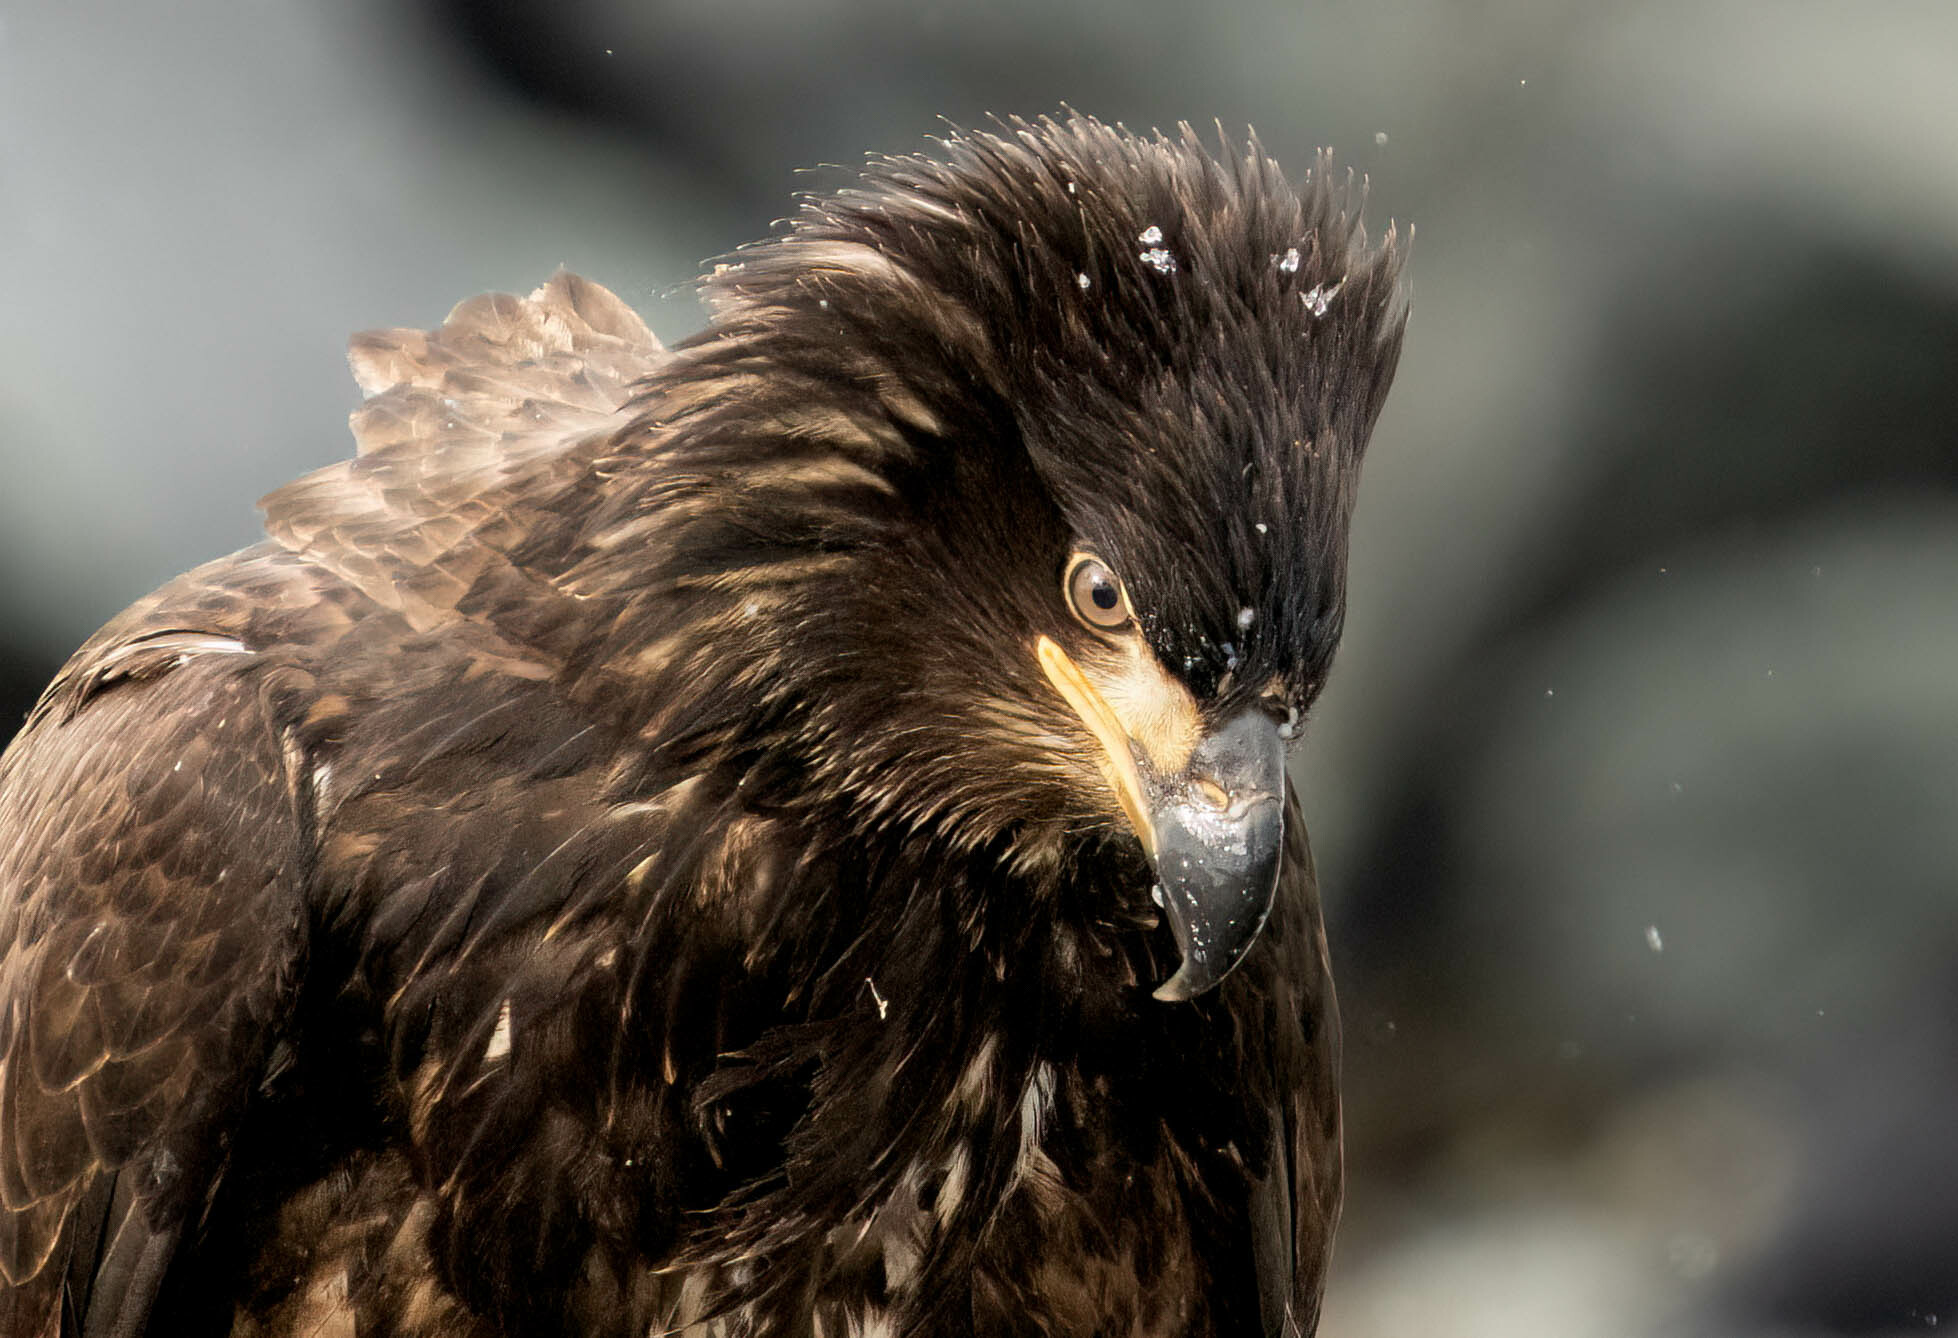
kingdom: Animalia
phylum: Chordata
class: Aves
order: Accipitriformes
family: Accipitridae
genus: Haliaeetus
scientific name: Haliaeetus leucocephalus
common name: Bald eagle
